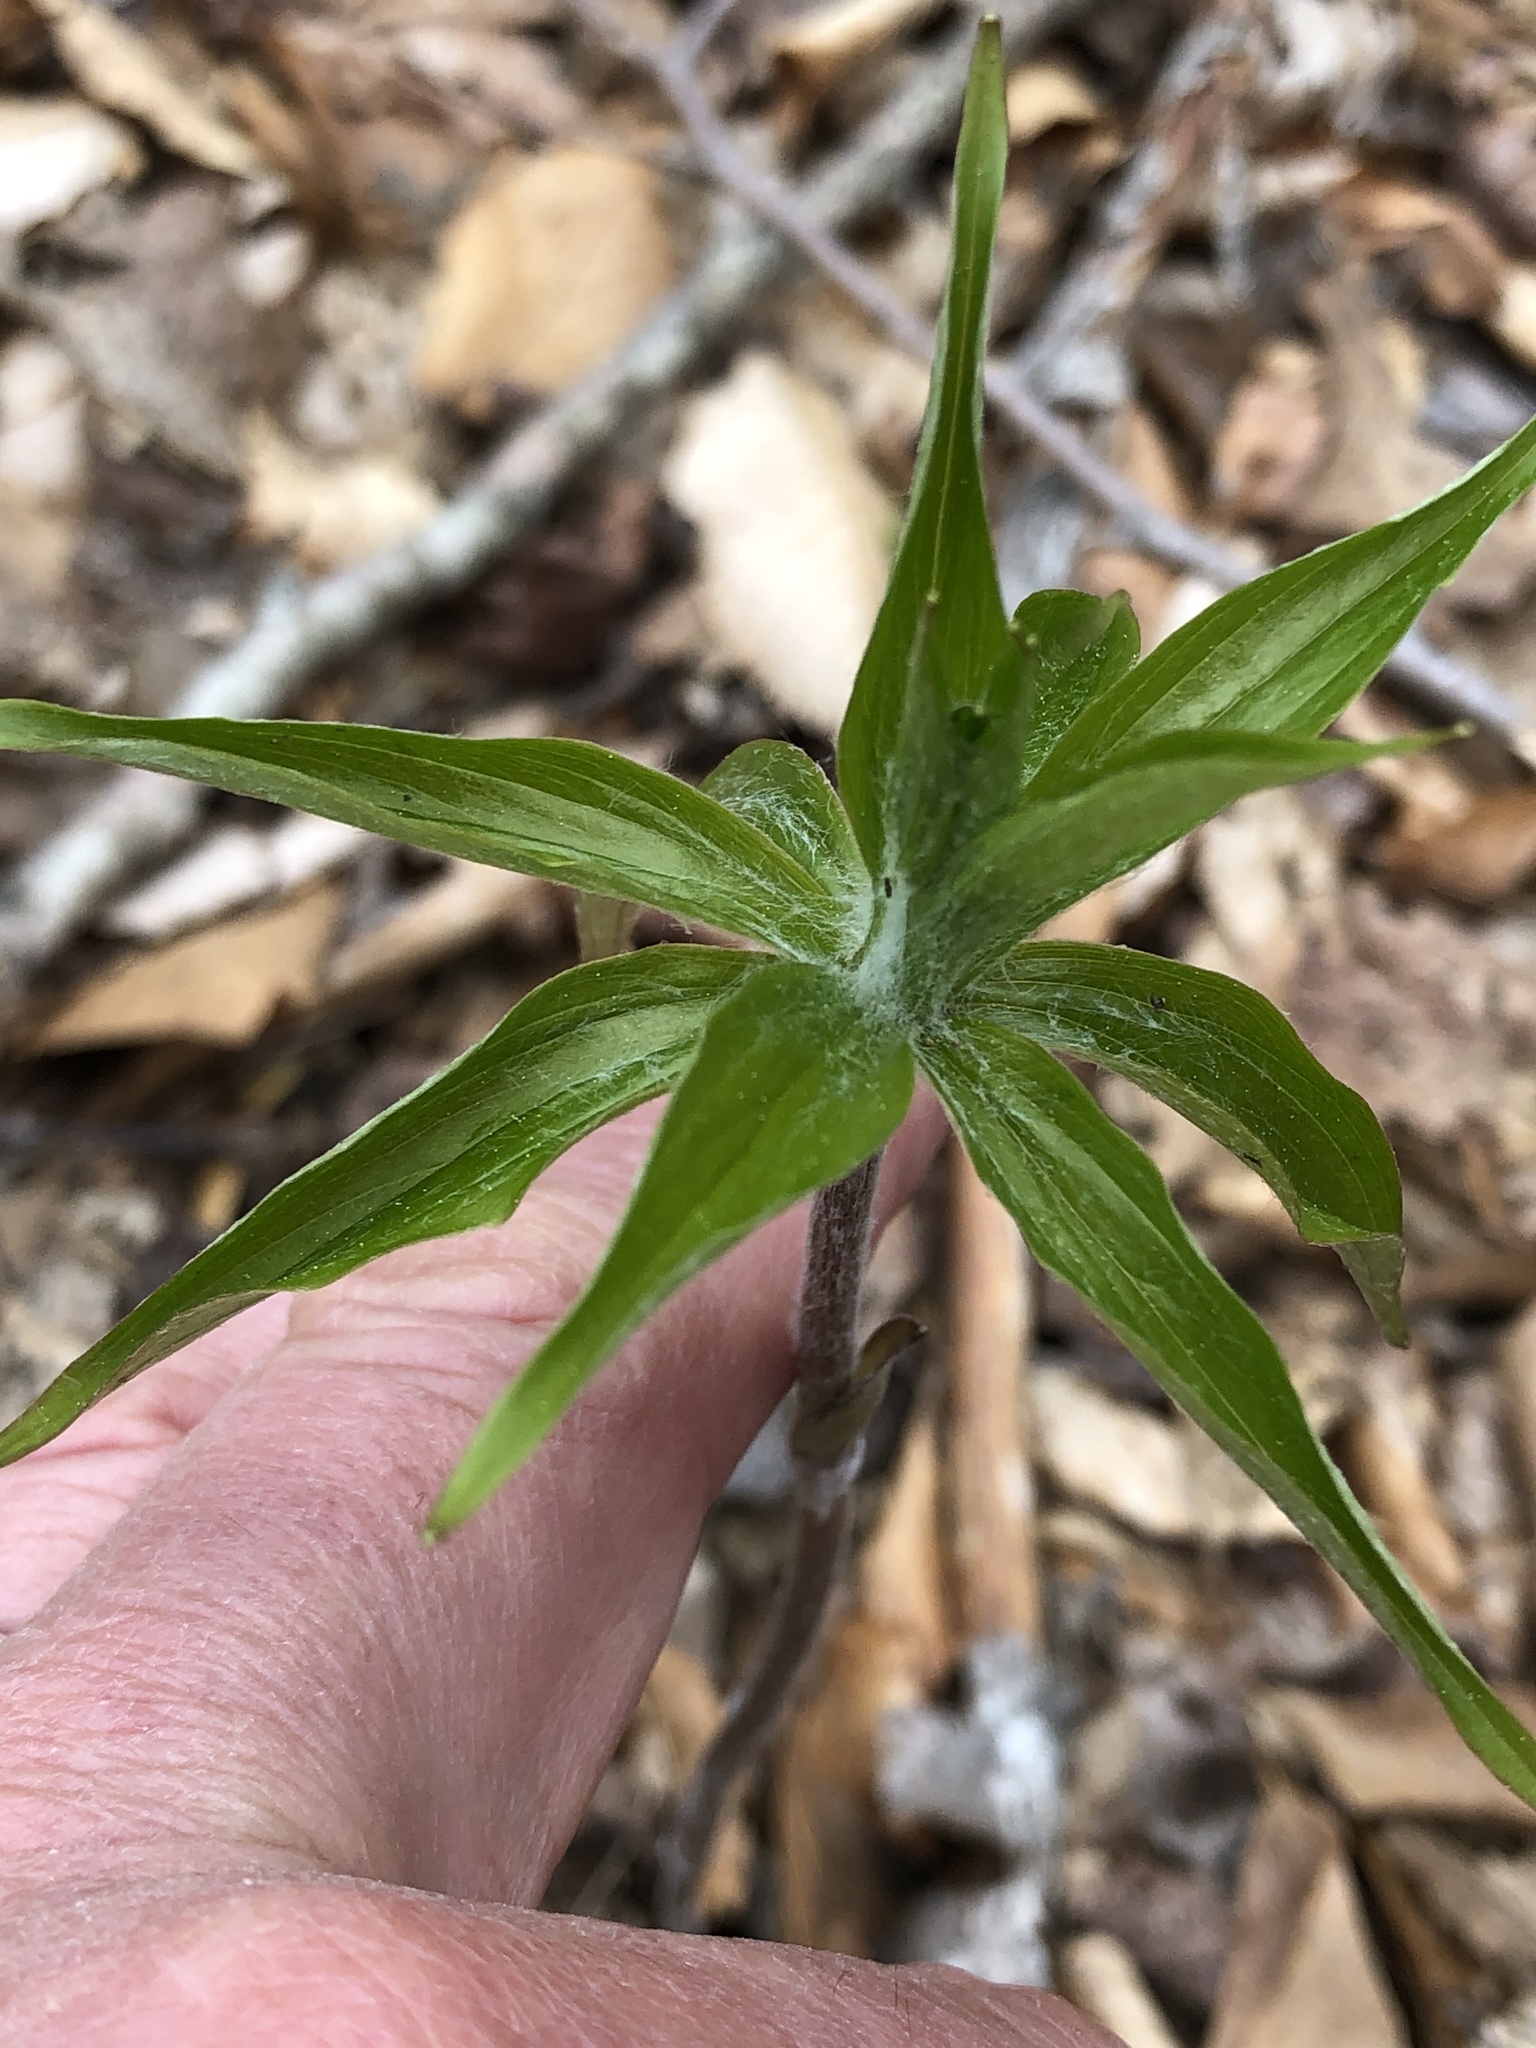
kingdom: Plantae
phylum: Tracheophyta
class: Liliopsida
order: Liliales
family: Liliaceae
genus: Medeola
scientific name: Medeola virginiana
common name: Indian cucumber-root
